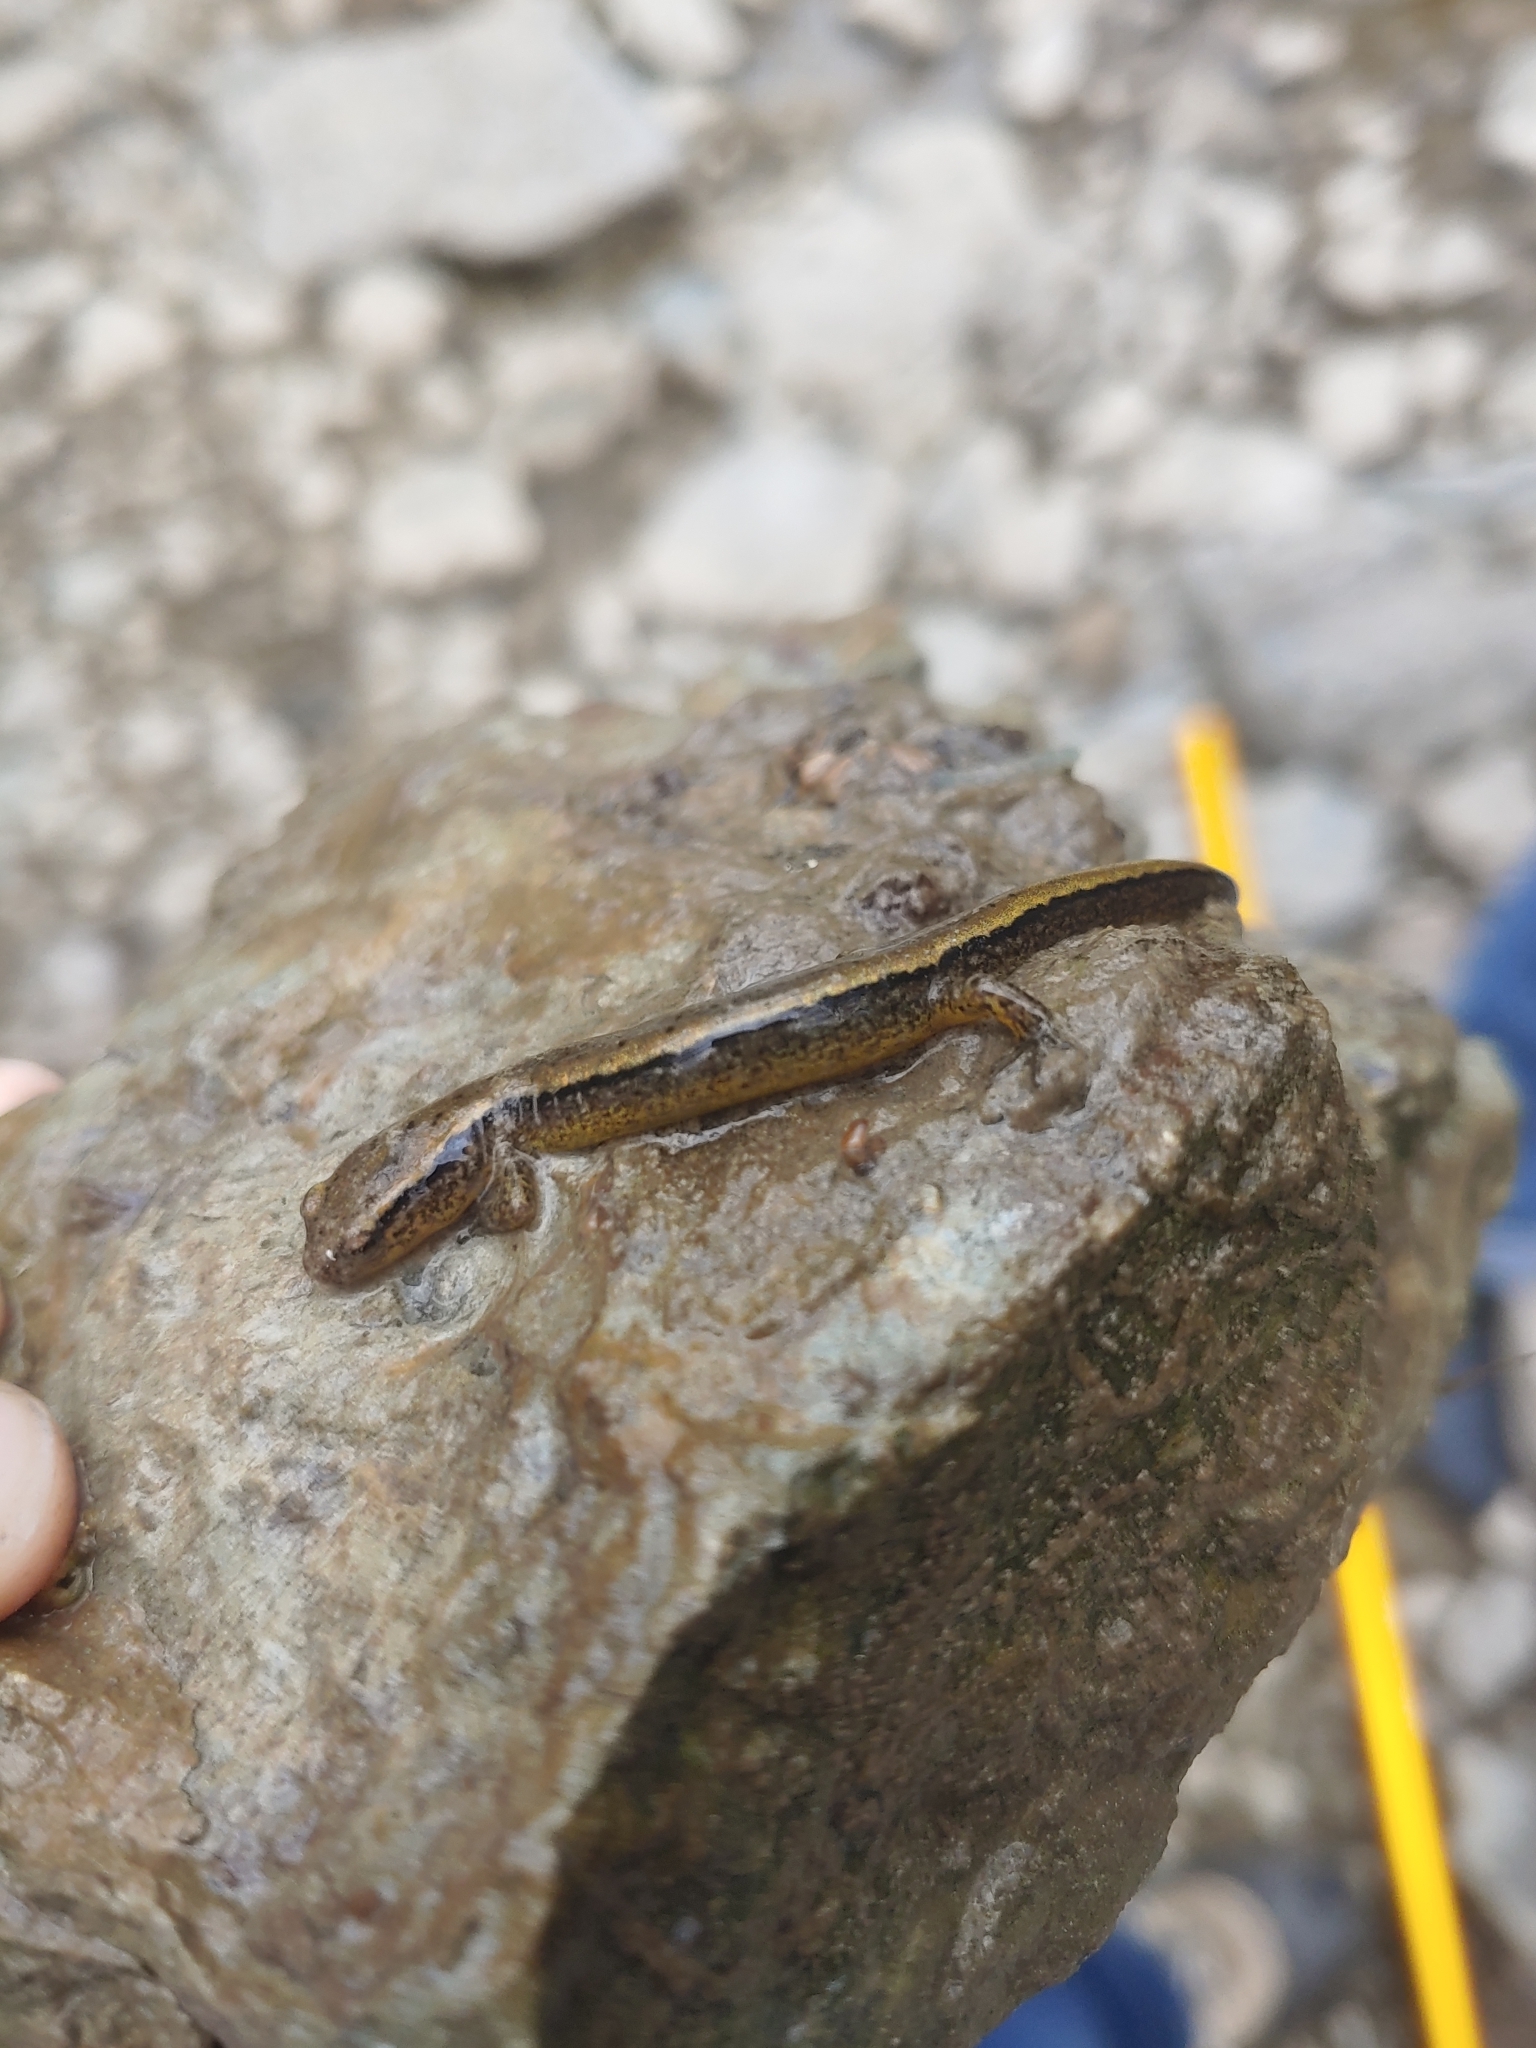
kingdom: Animalia
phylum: Chordata
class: Amphibia
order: Caudata
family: Plethodontidae
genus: Eurycea
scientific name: Eurycea cirrigera
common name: Southern two-lined salamander
